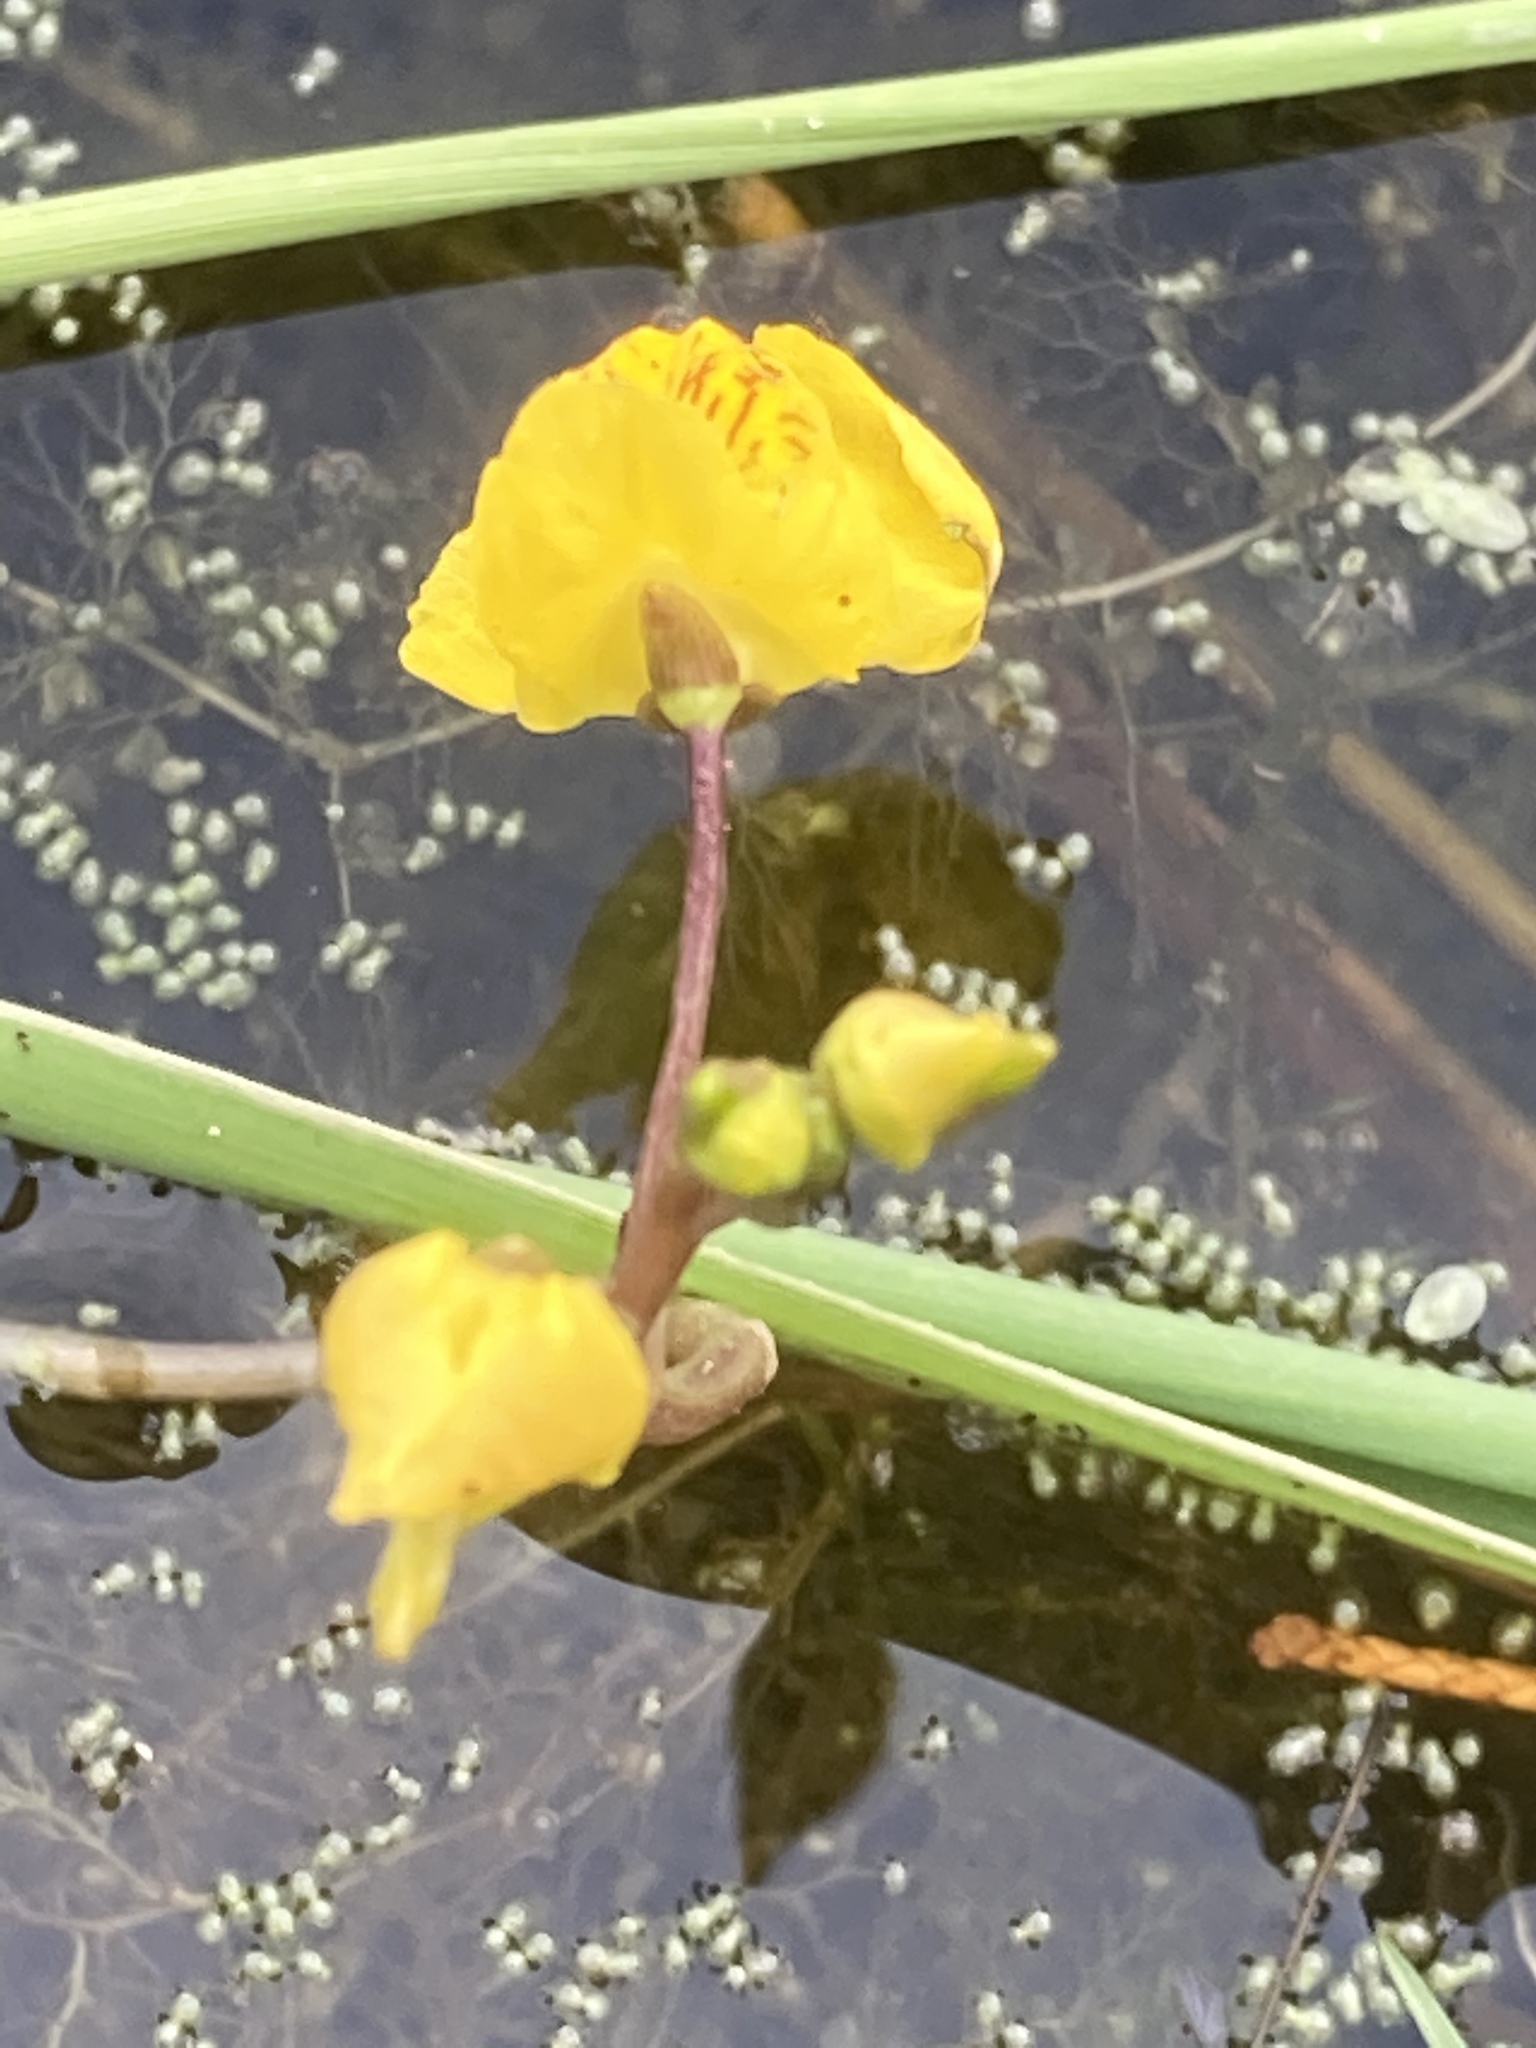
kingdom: Plantae
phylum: Tracheophyta
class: Magnoliopsida
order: Lamiales
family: Lentibulariaceae
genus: Utricularia
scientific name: Utricularia australis
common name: Bladderwort
